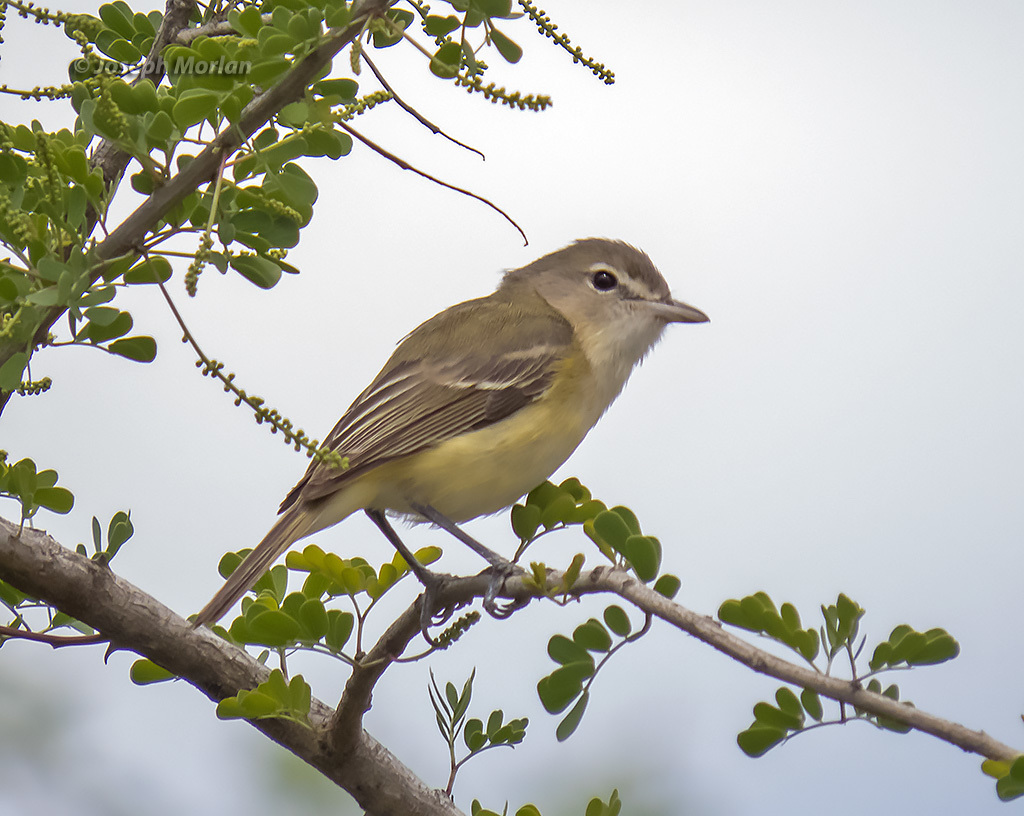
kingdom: Animalia
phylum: Chordata
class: Aves
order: Passeriformes
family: Vireonidae
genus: Vireo
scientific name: Vireo bellii
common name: Bell's vireo
